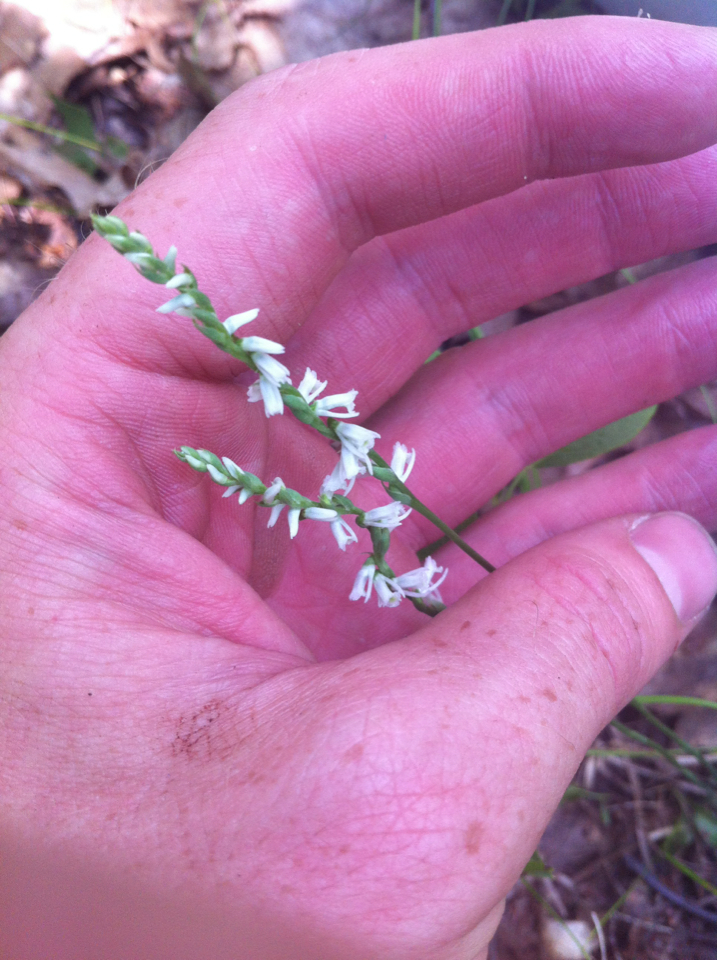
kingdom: Plantae
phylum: Tracheophyta
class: Liliopsida
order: Asparagales
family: Orchidaceae
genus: Spiranthes
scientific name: Spiranthes lacera
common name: Northern slender ladies'-tresses
